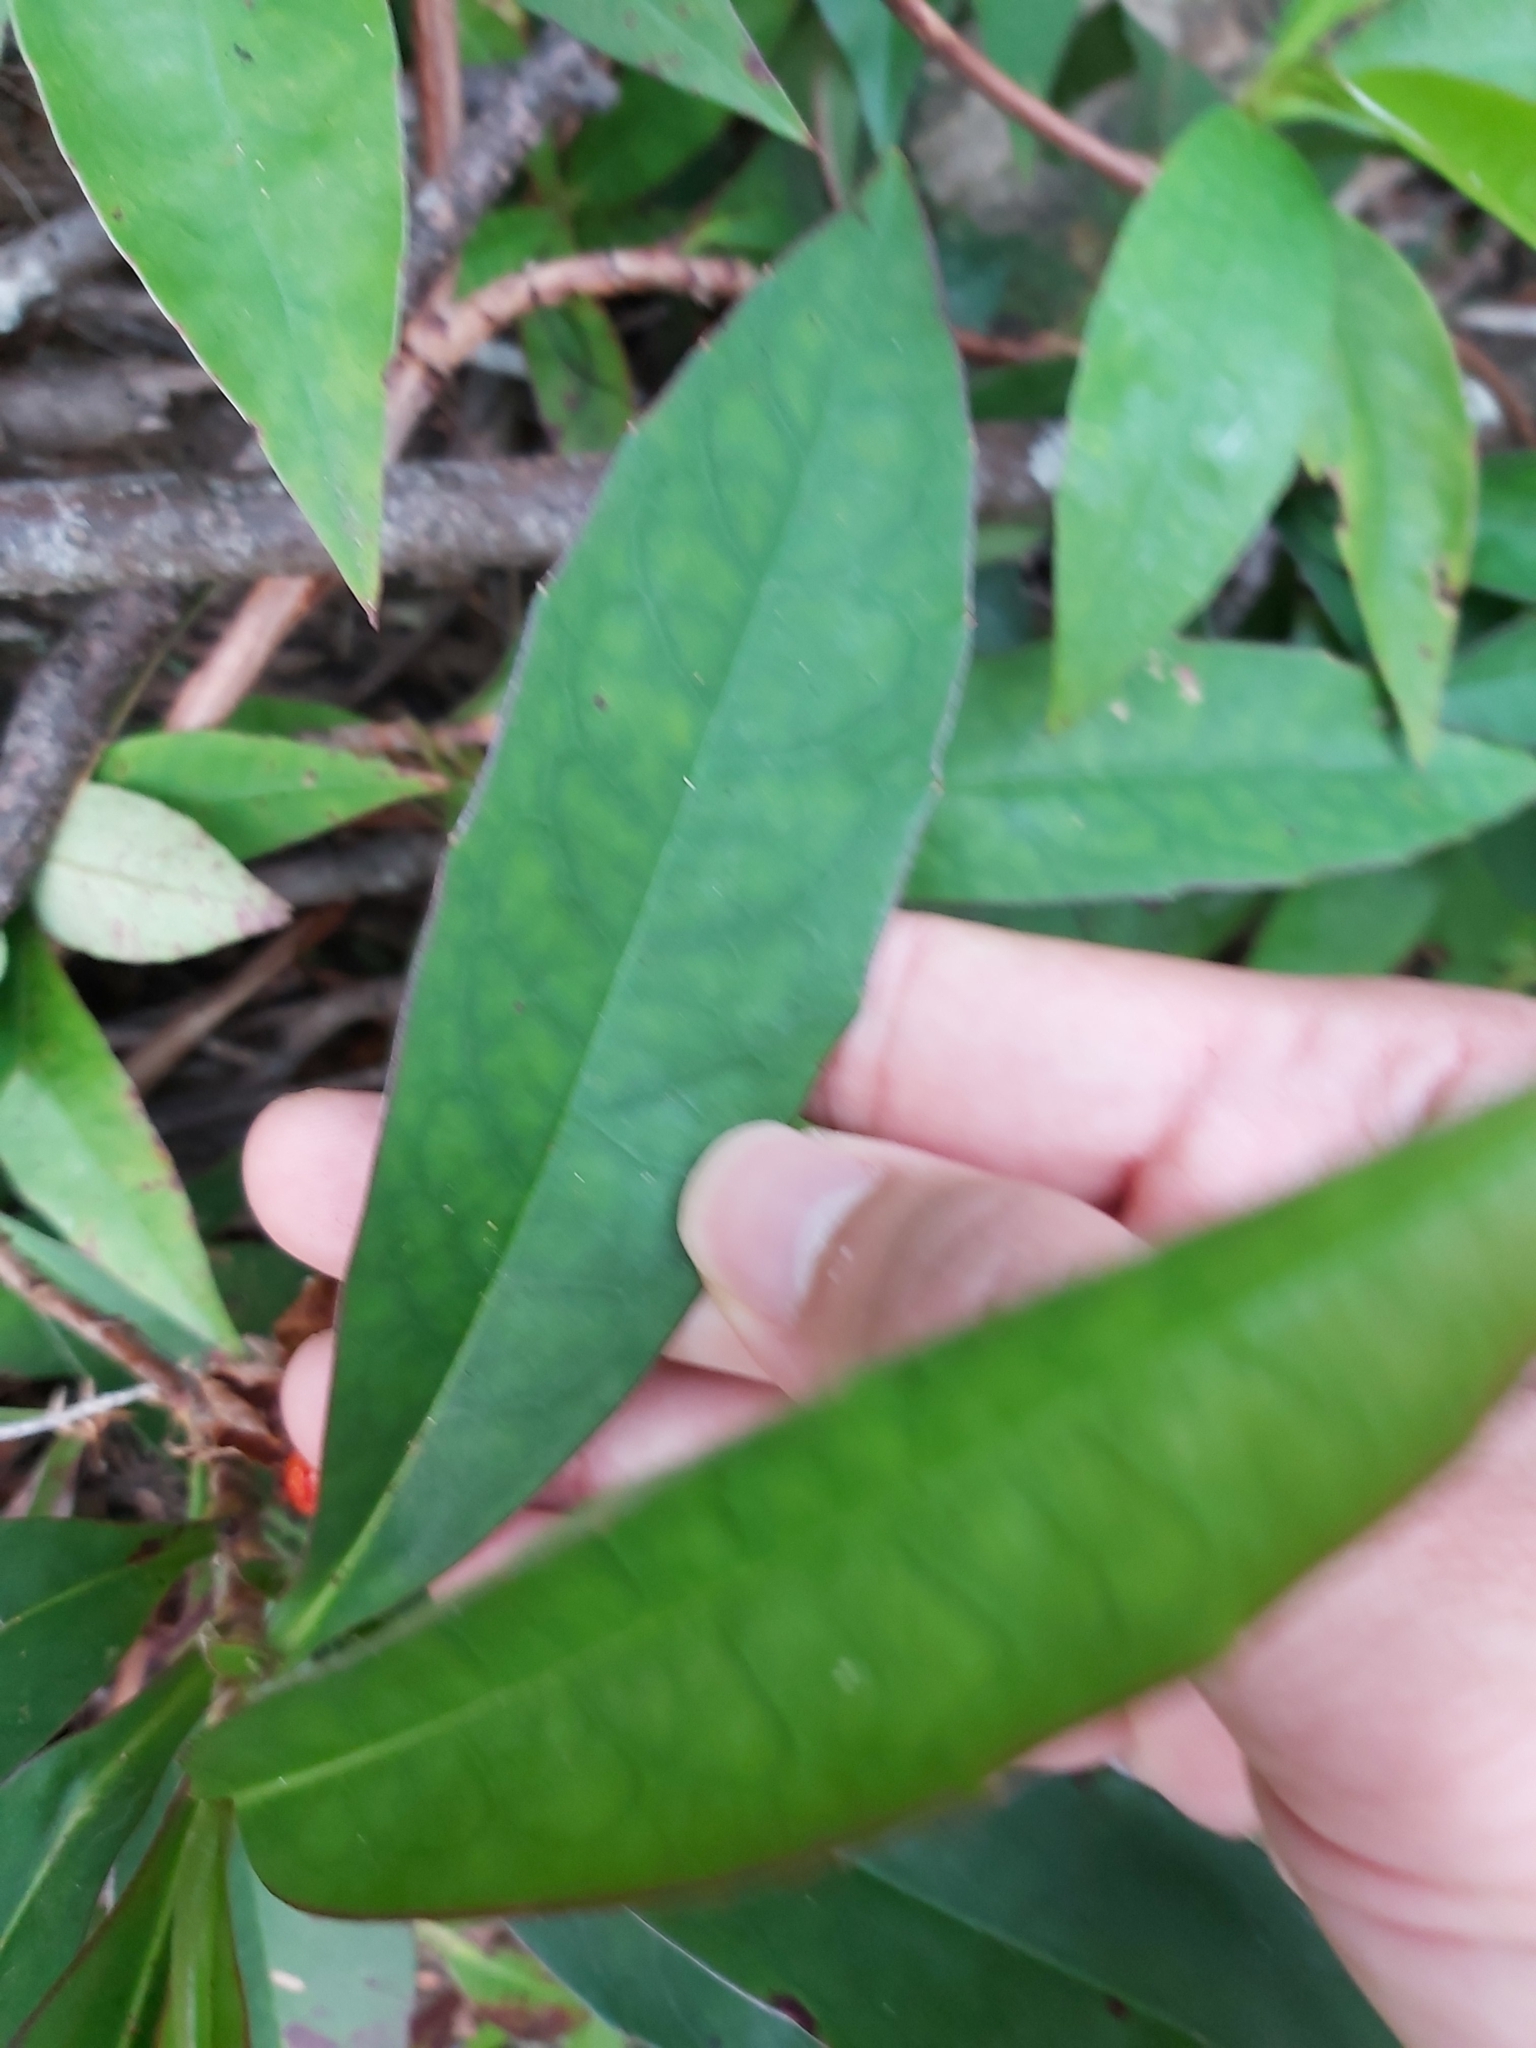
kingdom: Plantae
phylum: Tracheophyta
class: Magnoliopsida
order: Dilleniales
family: Dilleniaceae
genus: Hibbertia
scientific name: Hibbertia scandens
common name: Climbing guinea-flower
